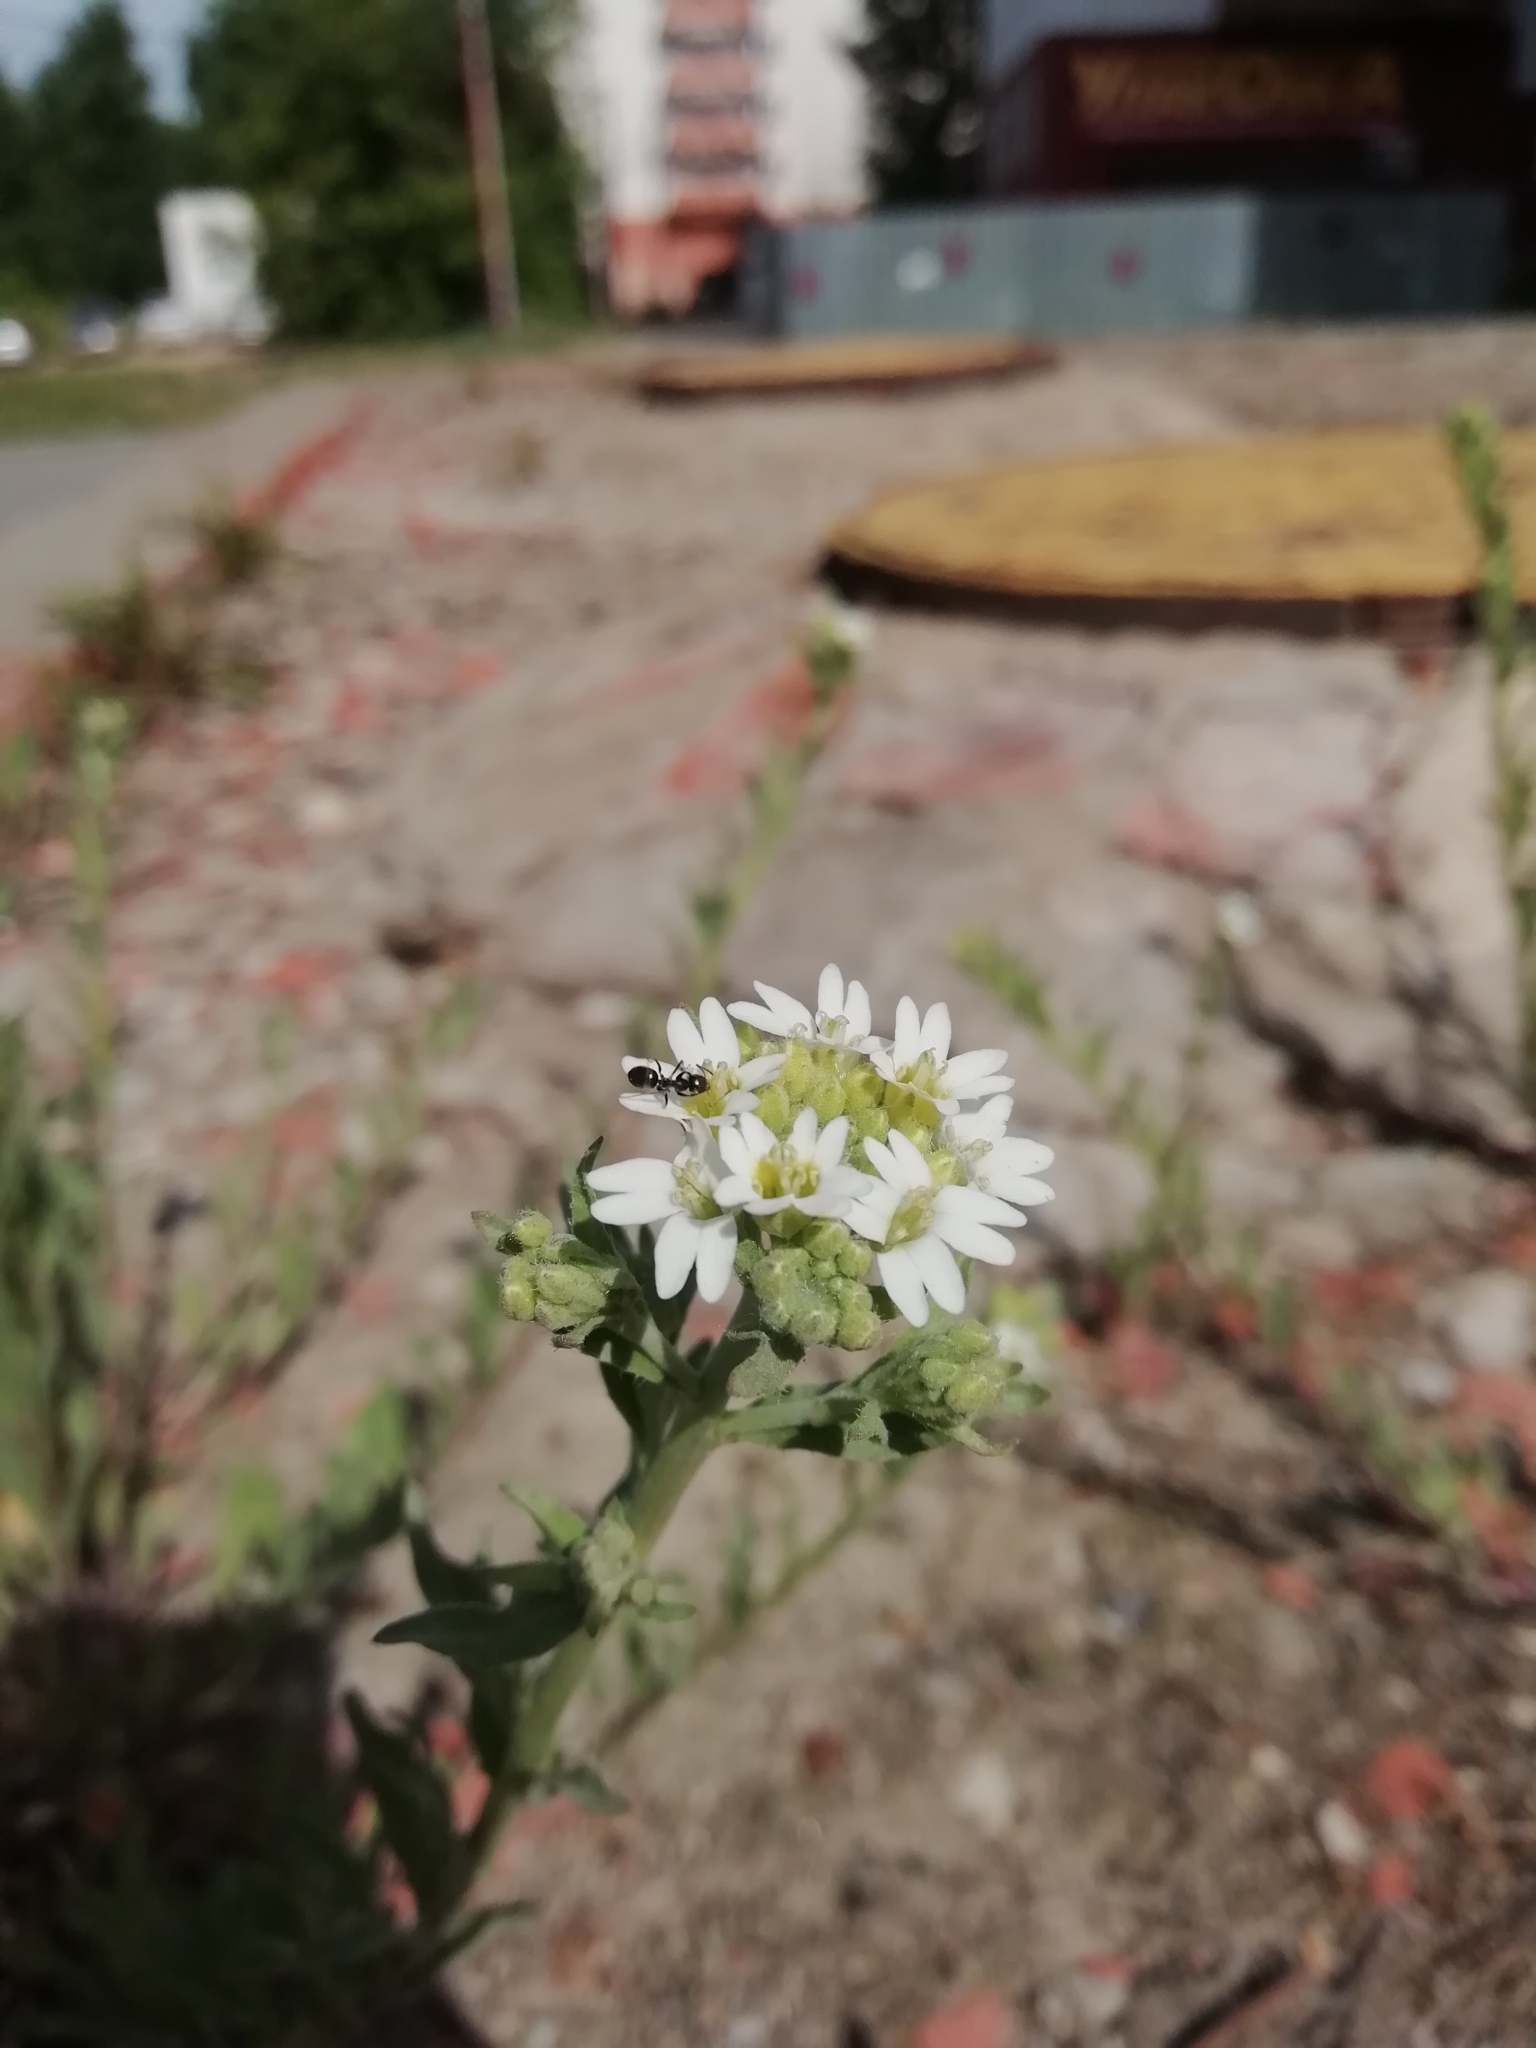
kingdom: Plantae
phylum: Tracheophyta
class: Magnoliopsida
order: Brassicales
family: Brassicaceae
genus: Berteroa
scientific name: Berteroa incana
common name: Hoary alison
